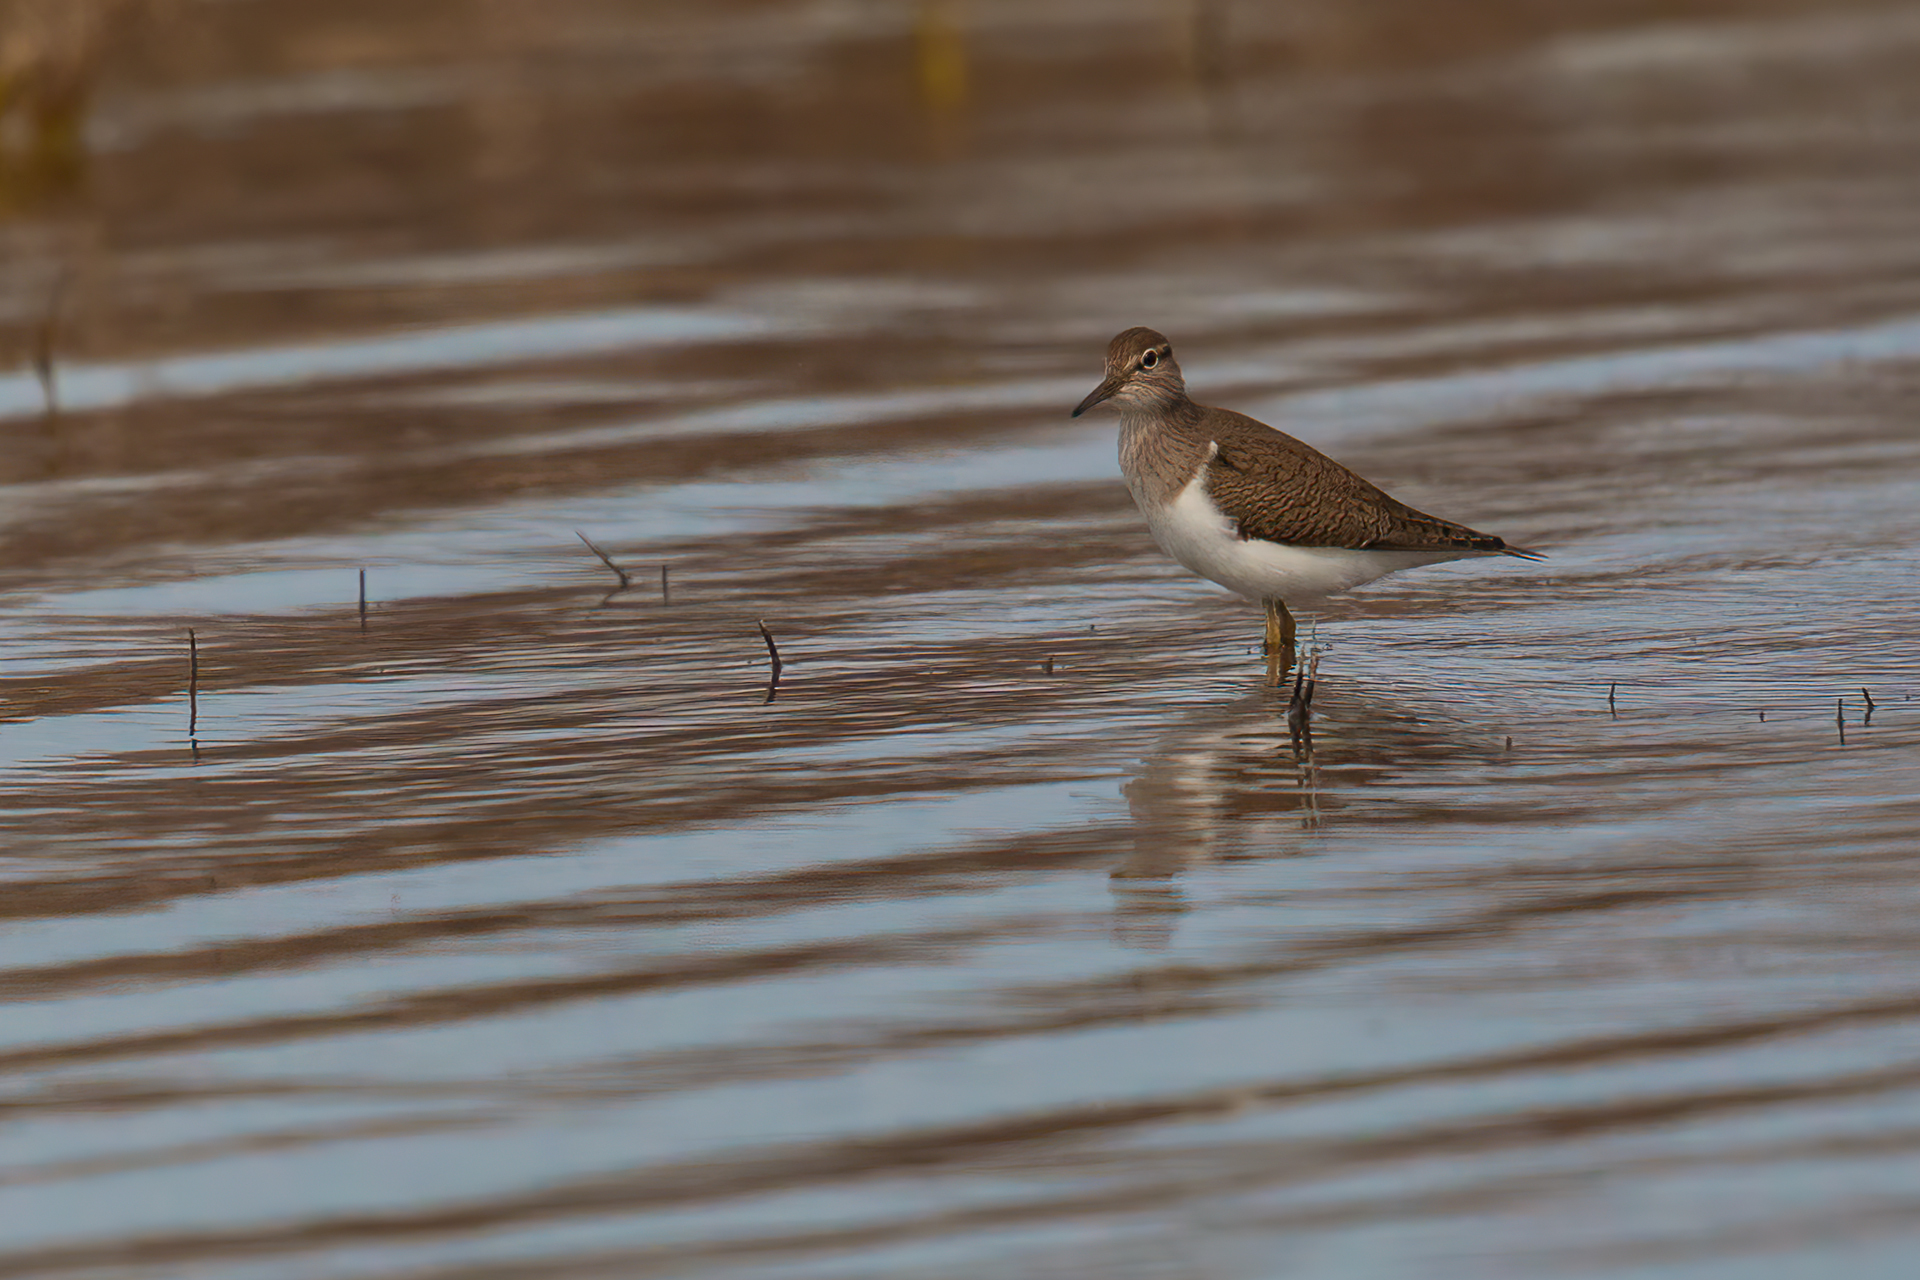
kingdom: Animalia
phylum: Chordata
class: Aves
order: Charadriiformes
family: Scolopacidae
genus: Actitis
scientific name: Actitis hypoleucos
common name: Common sandpiper
